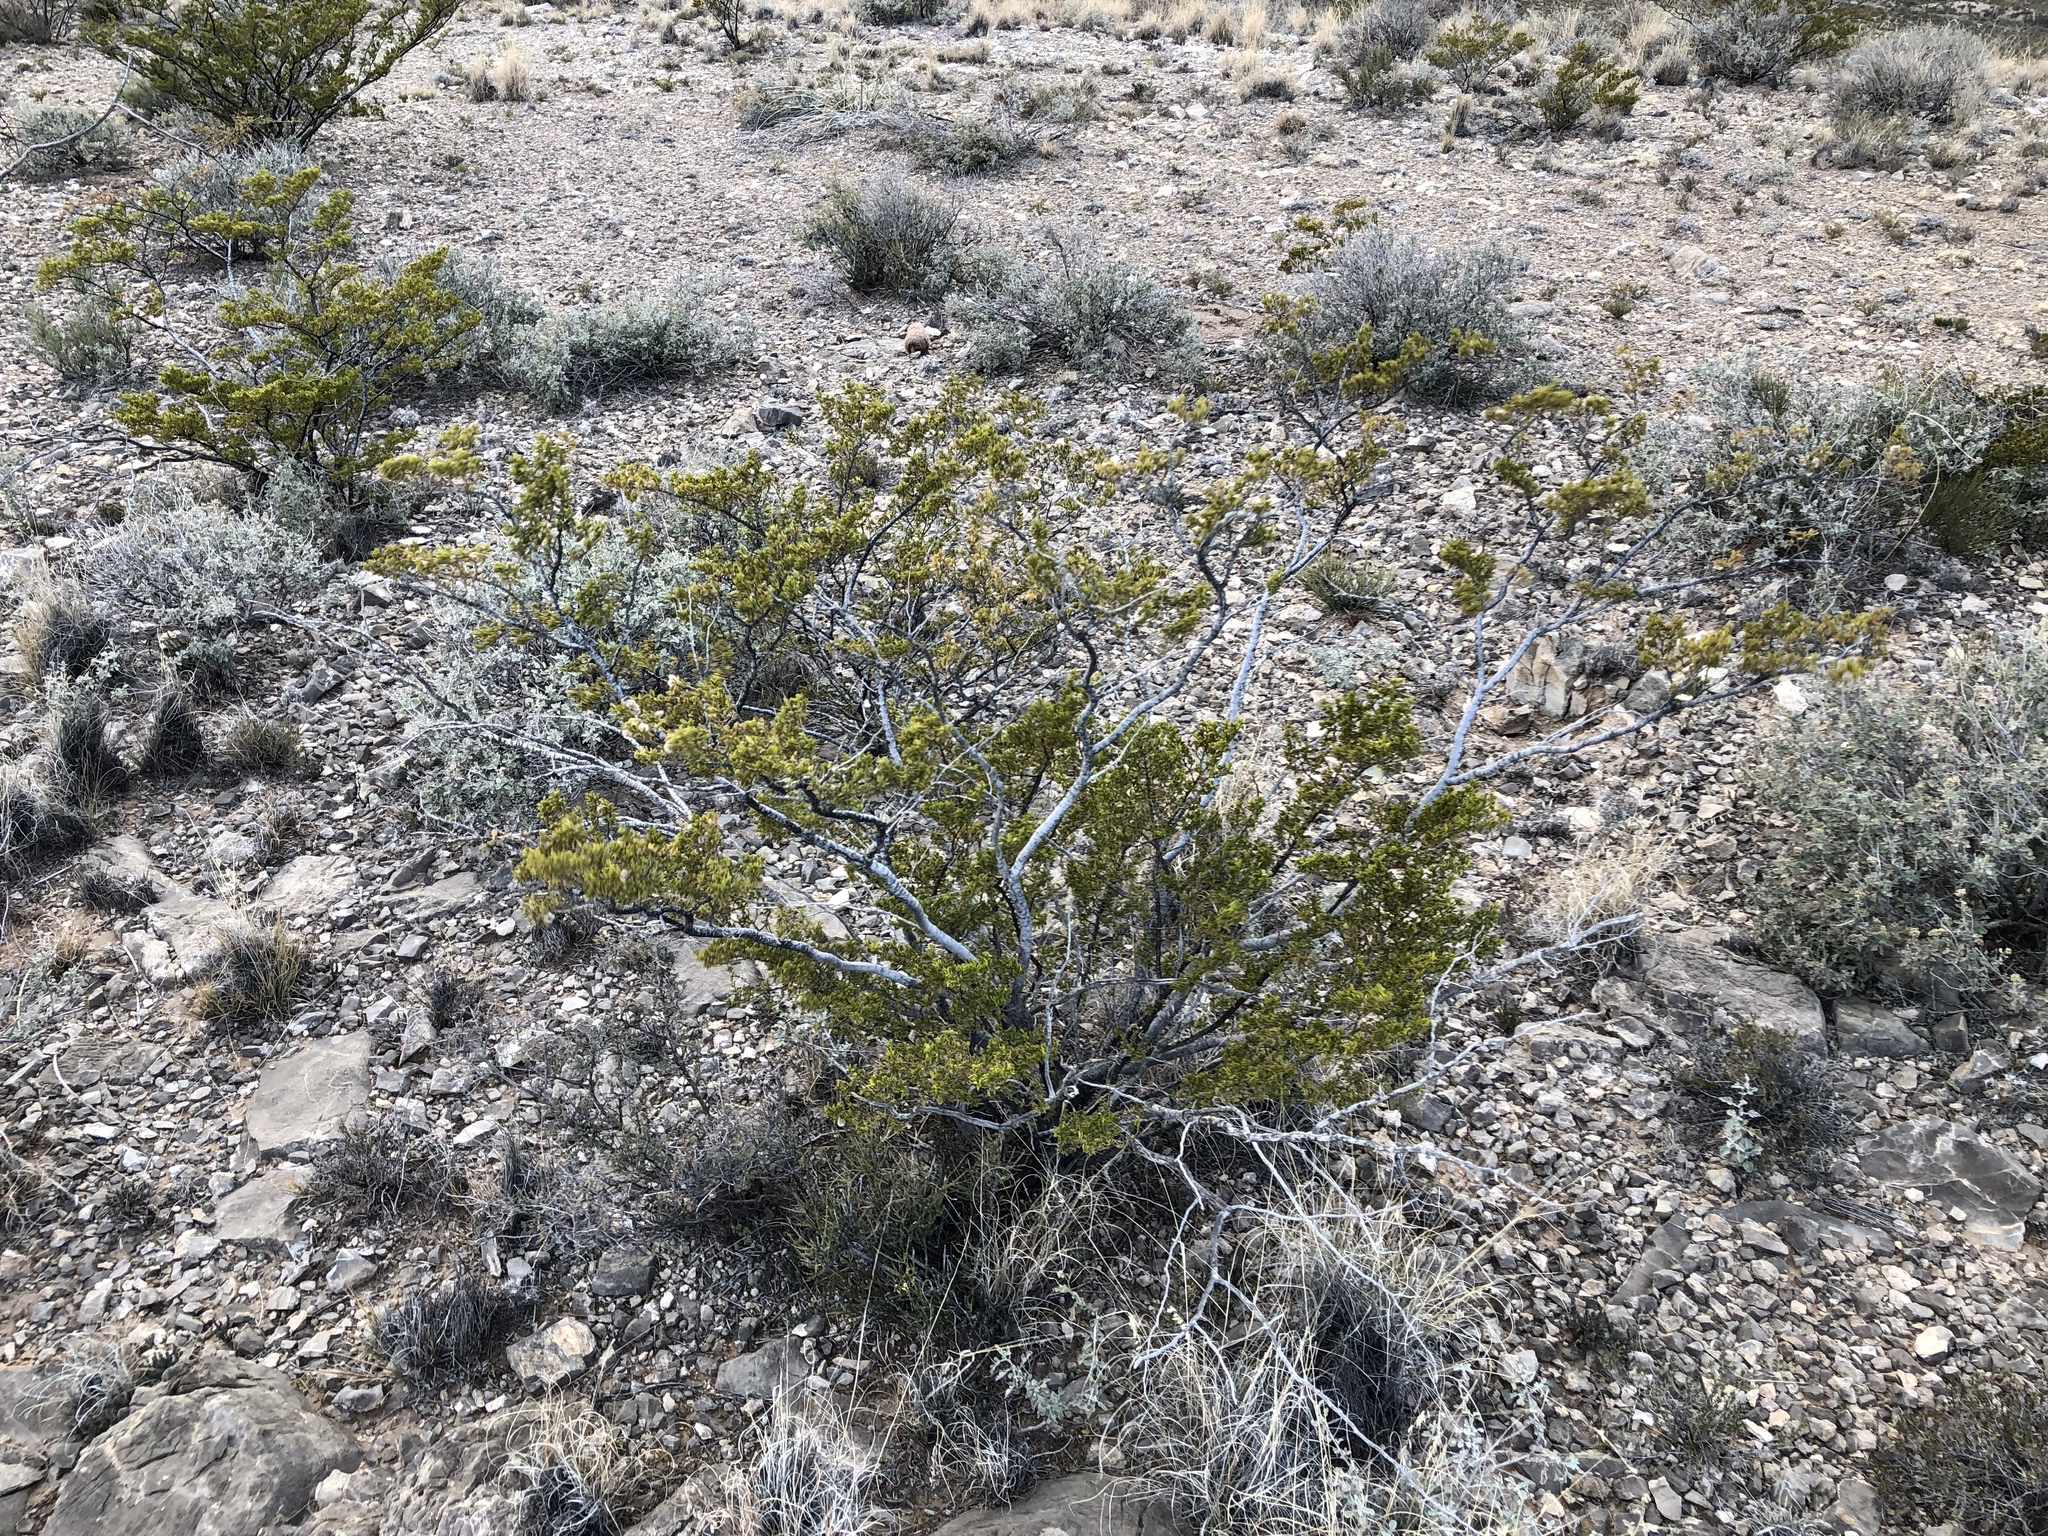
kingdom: Plantae
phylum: Tracheophyta
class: Magnoliopsida
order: Zygophyllales
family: Zygophyllaceae
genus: Larrea
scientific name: Larrea tridentata
